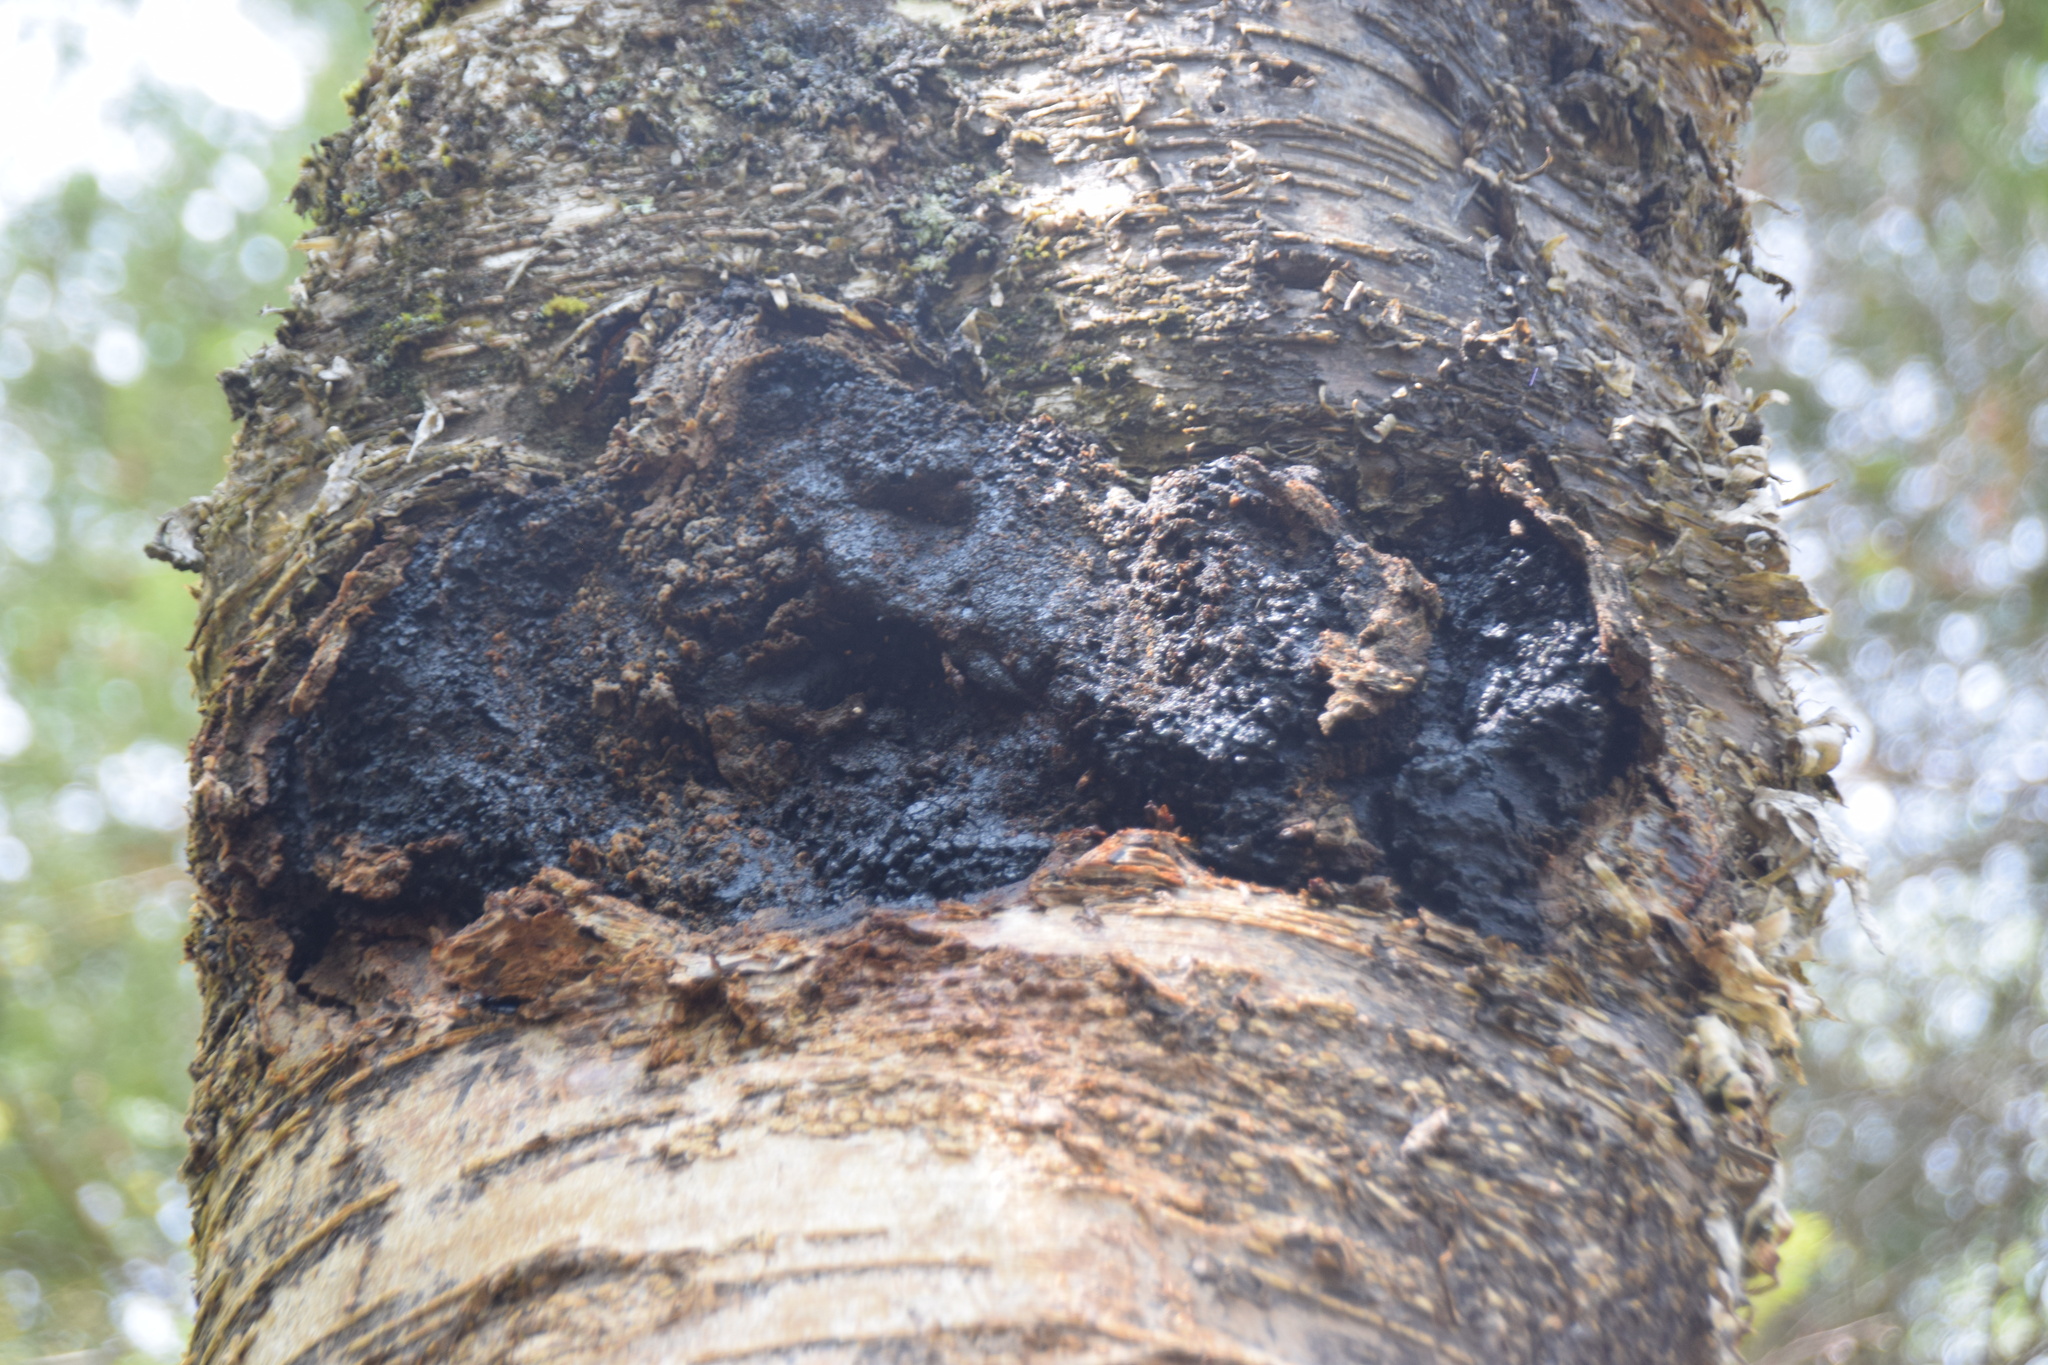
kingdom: Fungi
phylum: Basidiomycota
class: Agaricomycetes
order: Hymenochaetales
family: Hymenochaetaceae
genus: Inonotus
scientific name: Inonotus obliquus
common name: Chaga
